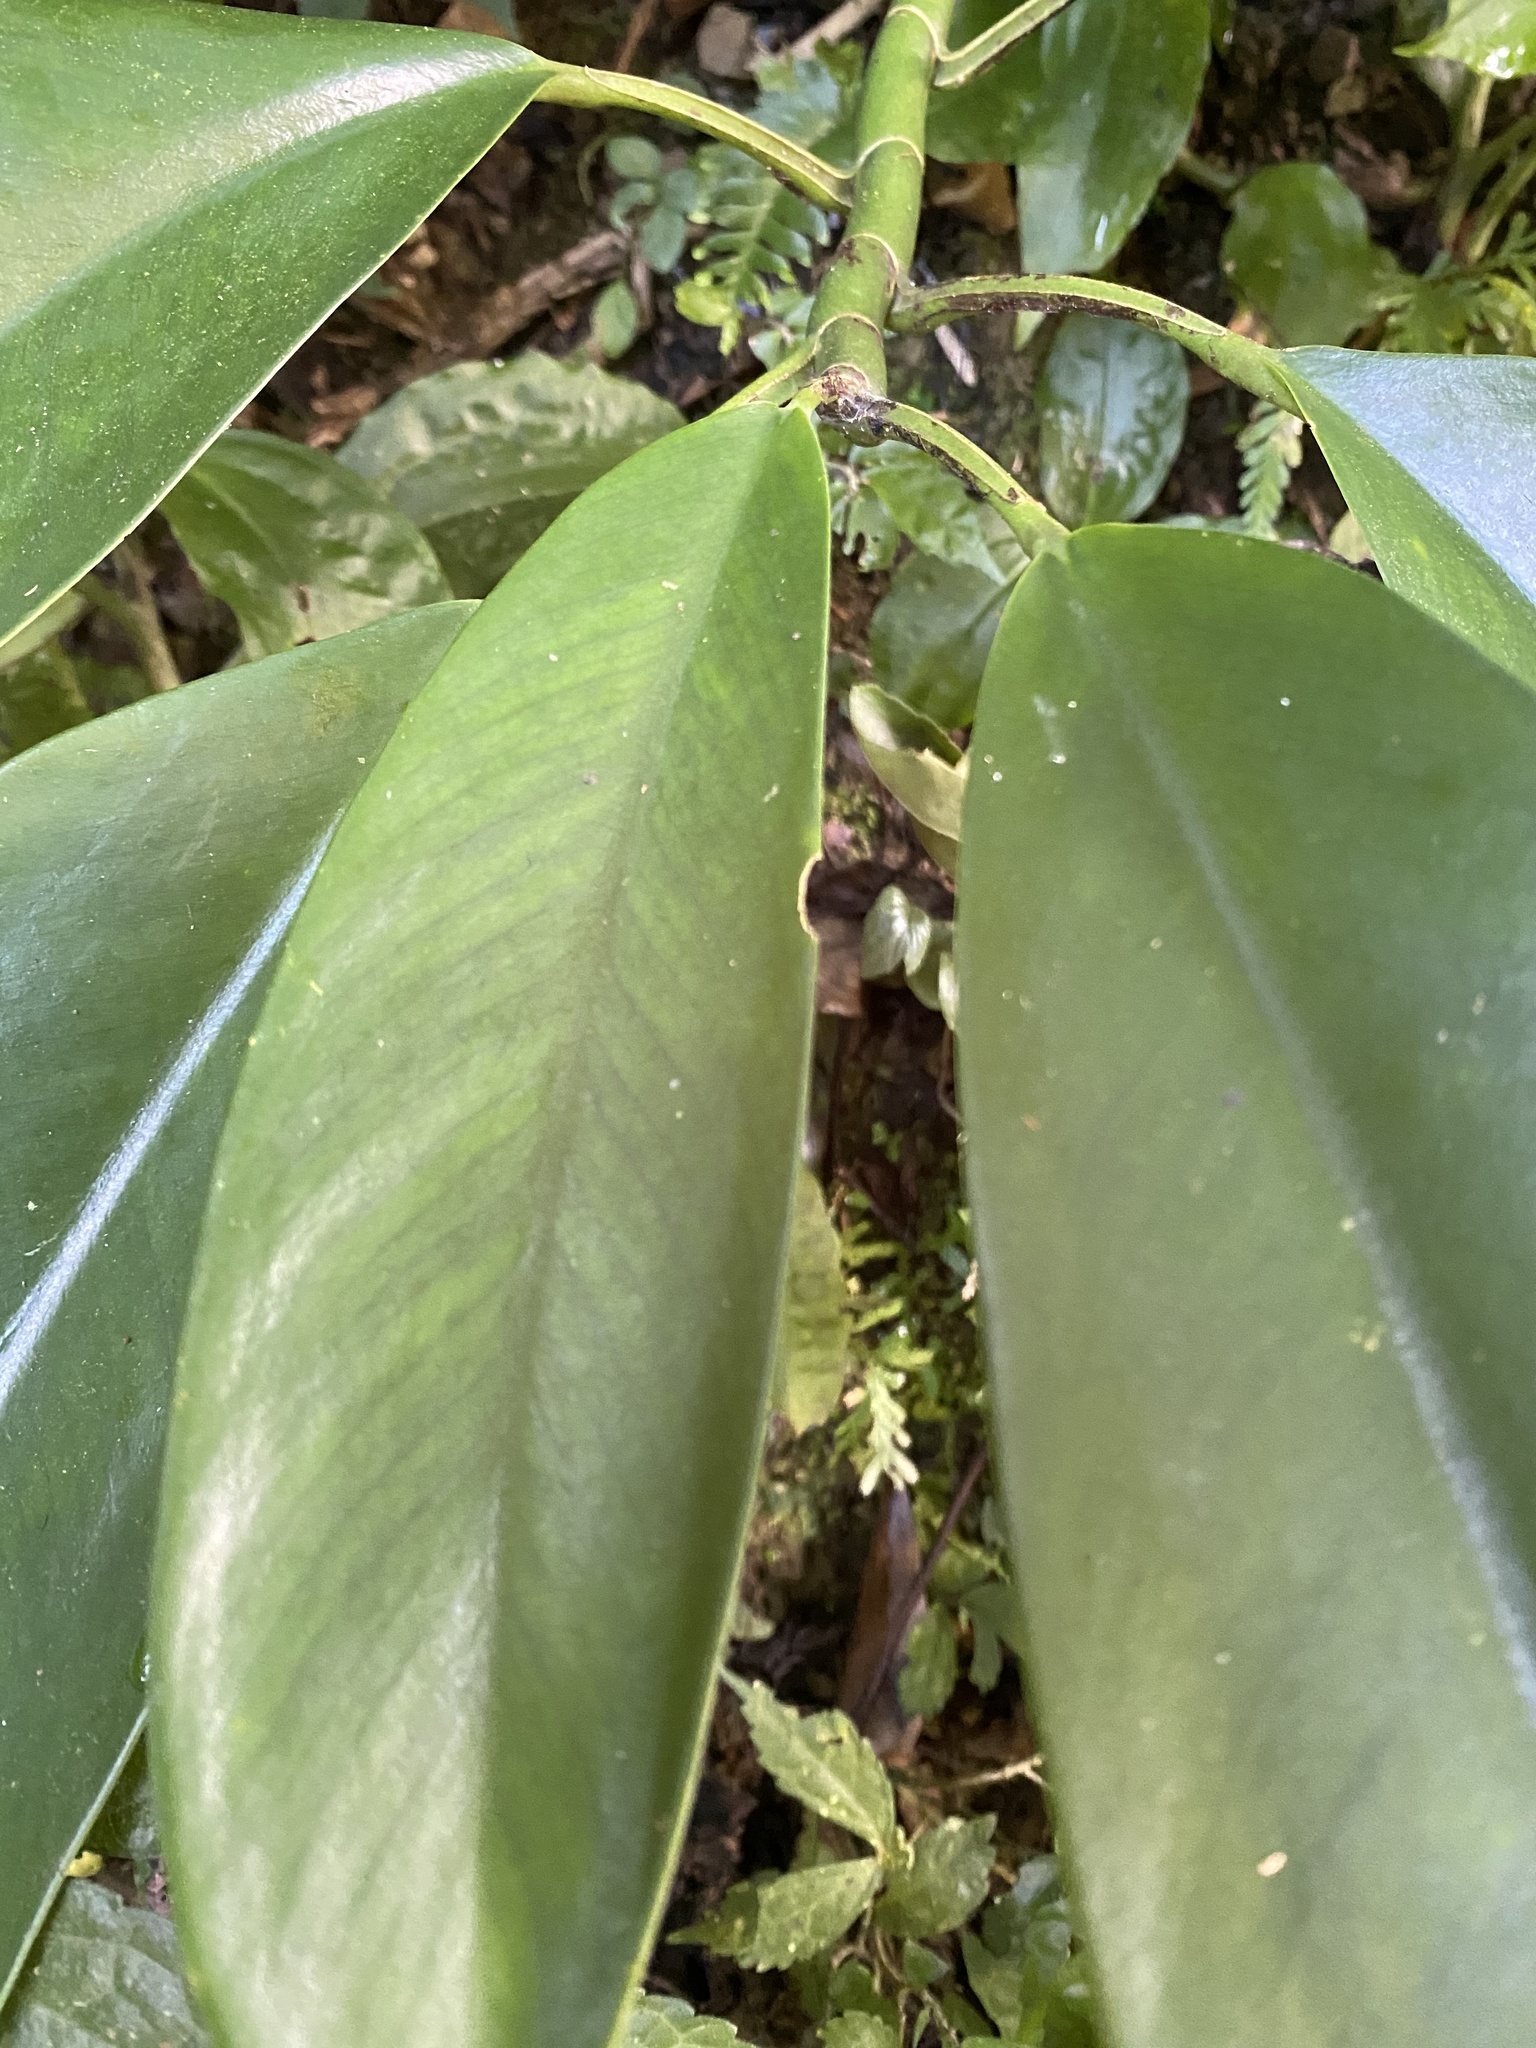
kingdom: Plantae
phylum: Tracheophyta
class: Liliopsida
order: Alismatales
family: Araceae
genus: Rhaphidophora
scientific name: Rhaphidophora hongkongensis
